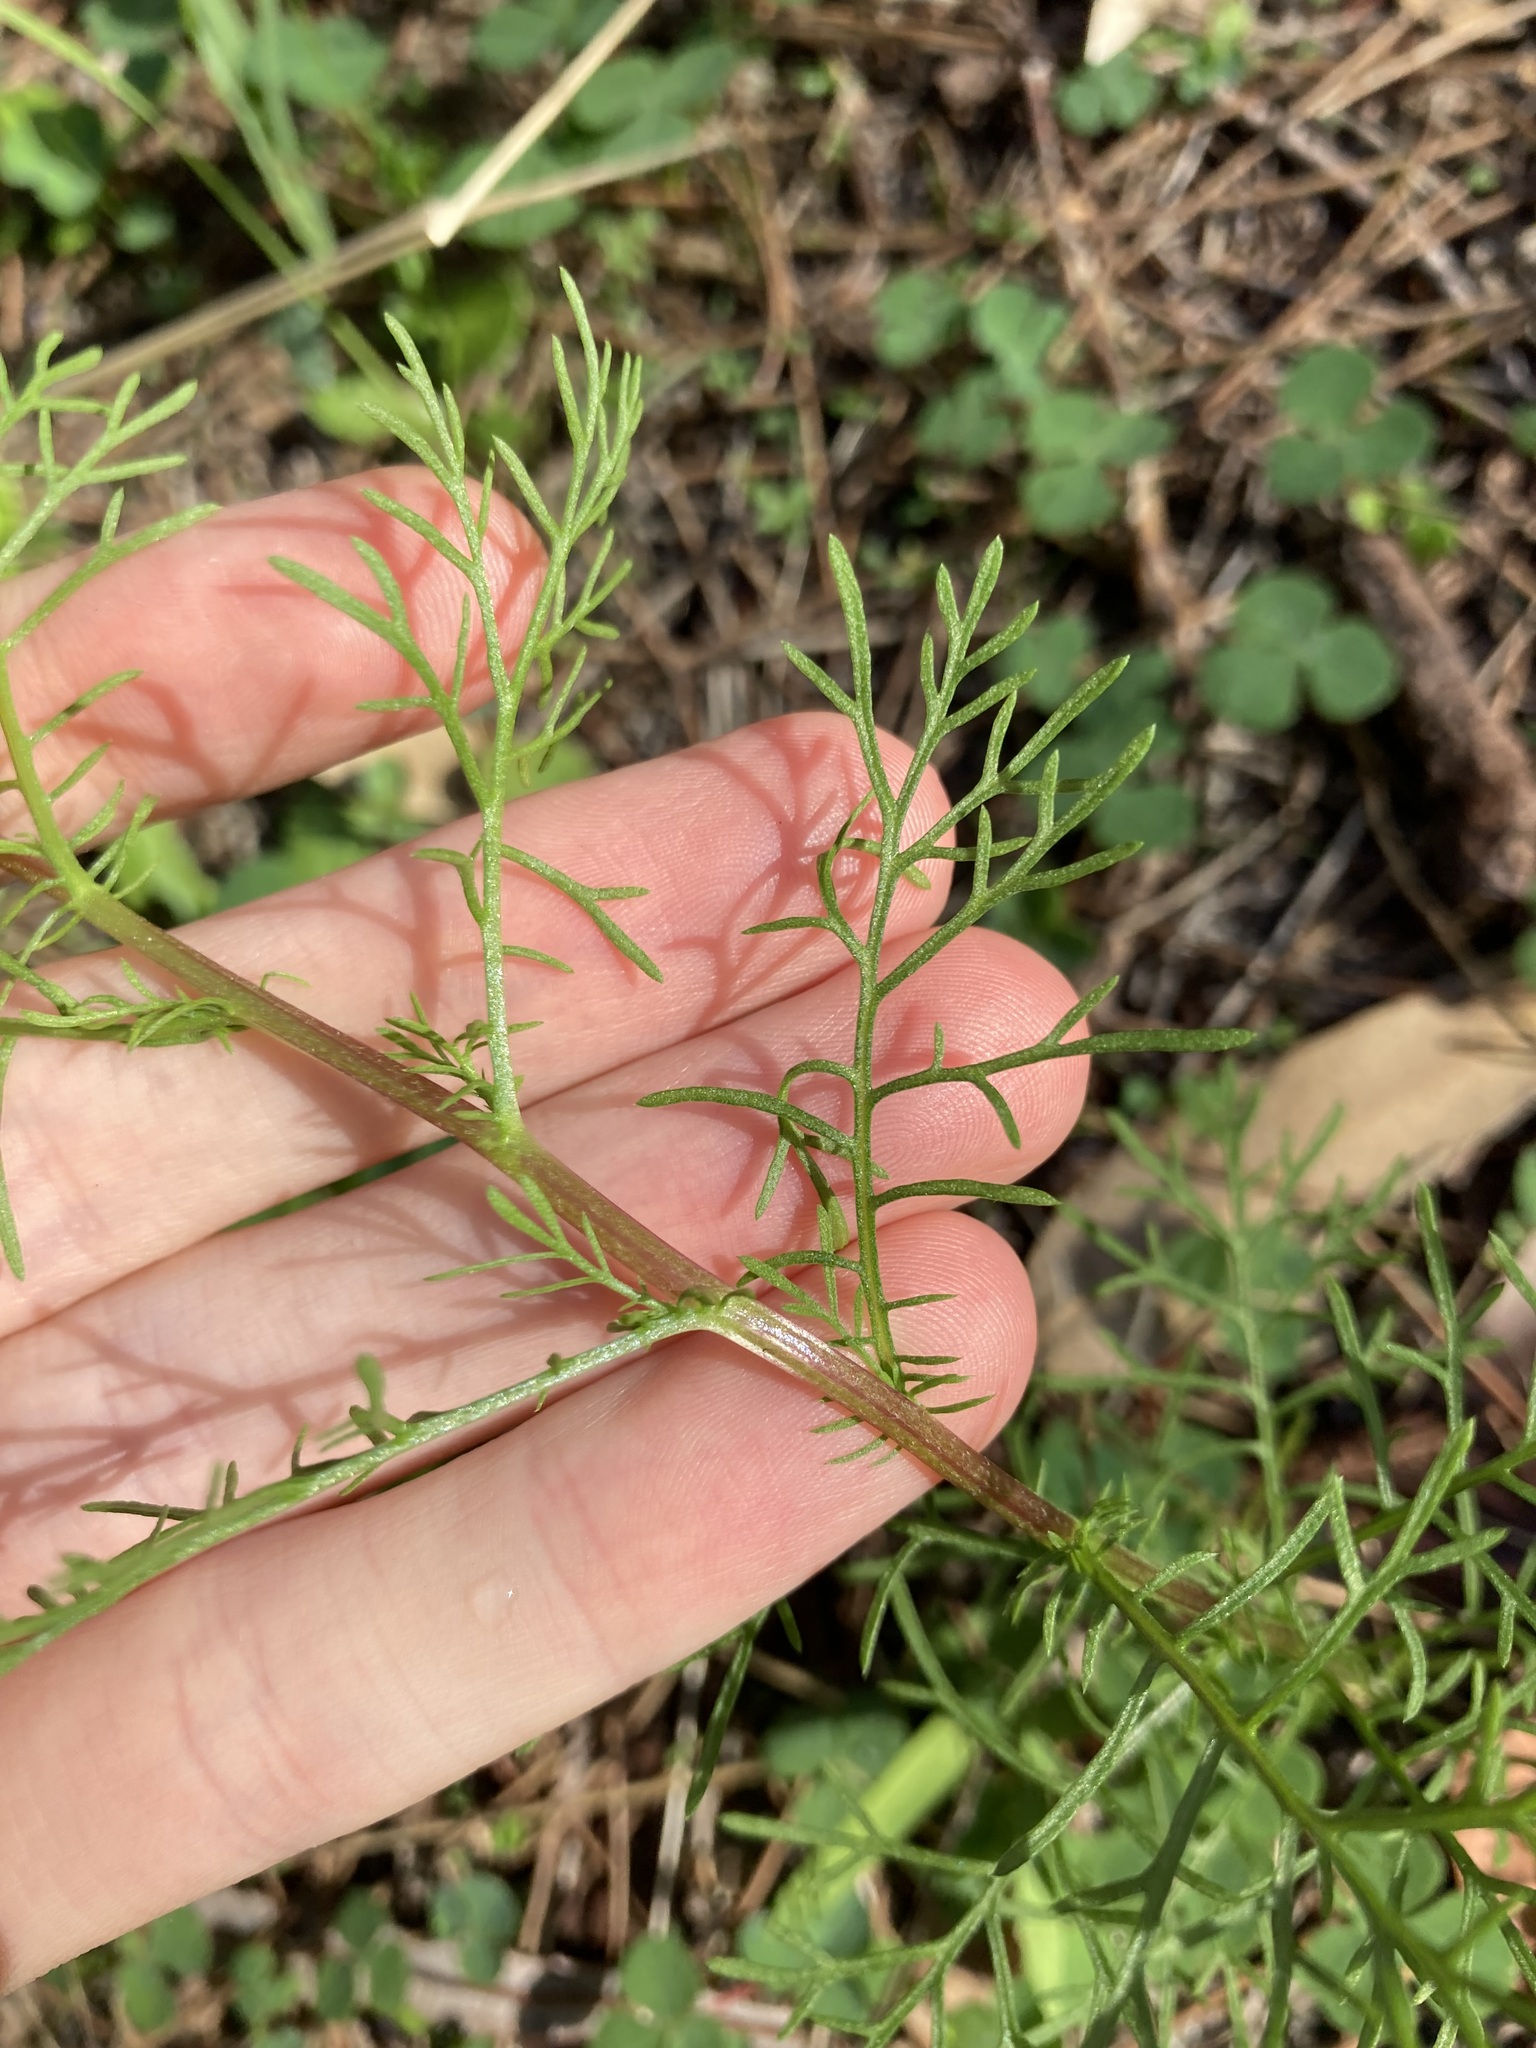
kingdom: Plantae
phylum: Tracheophyta
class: Magnoliopsida
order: Asterales
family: Asteraceae
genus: Ursinia
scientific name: Ursinia anthemoides
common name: Ursinia
